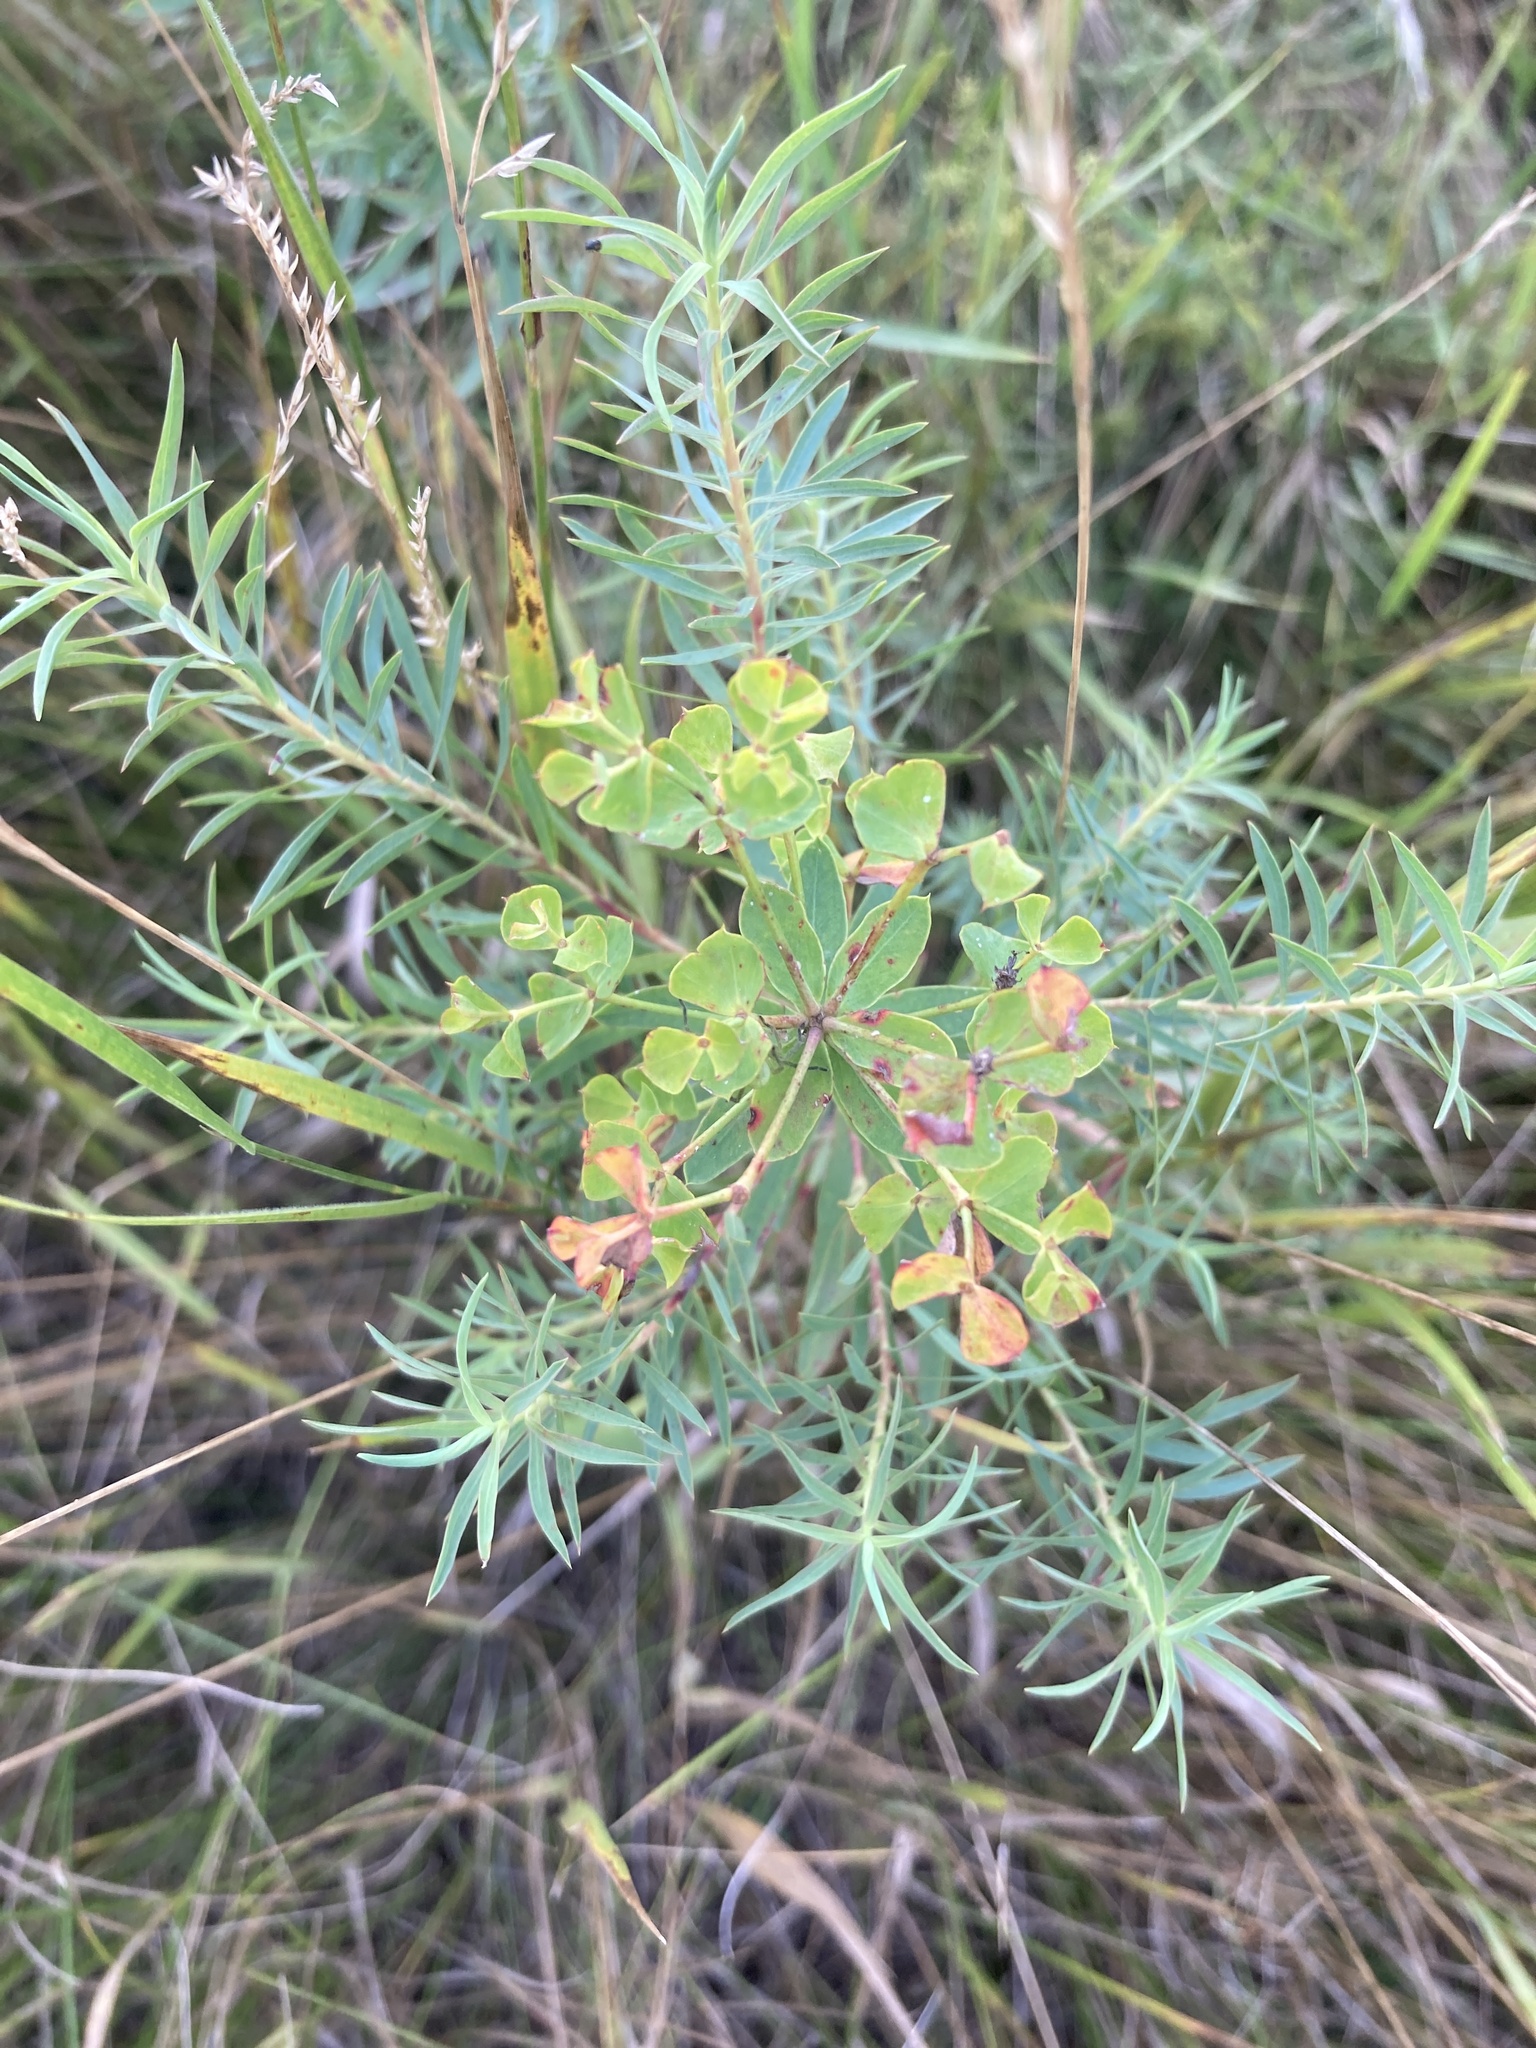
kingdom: Plantae
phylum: Tracheophyta
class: Magnoliopsida
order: Malpighiales
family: Euphorbiaceae
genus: Euphorbia
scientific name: Euphorbia virgata
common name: Leafy spurge
